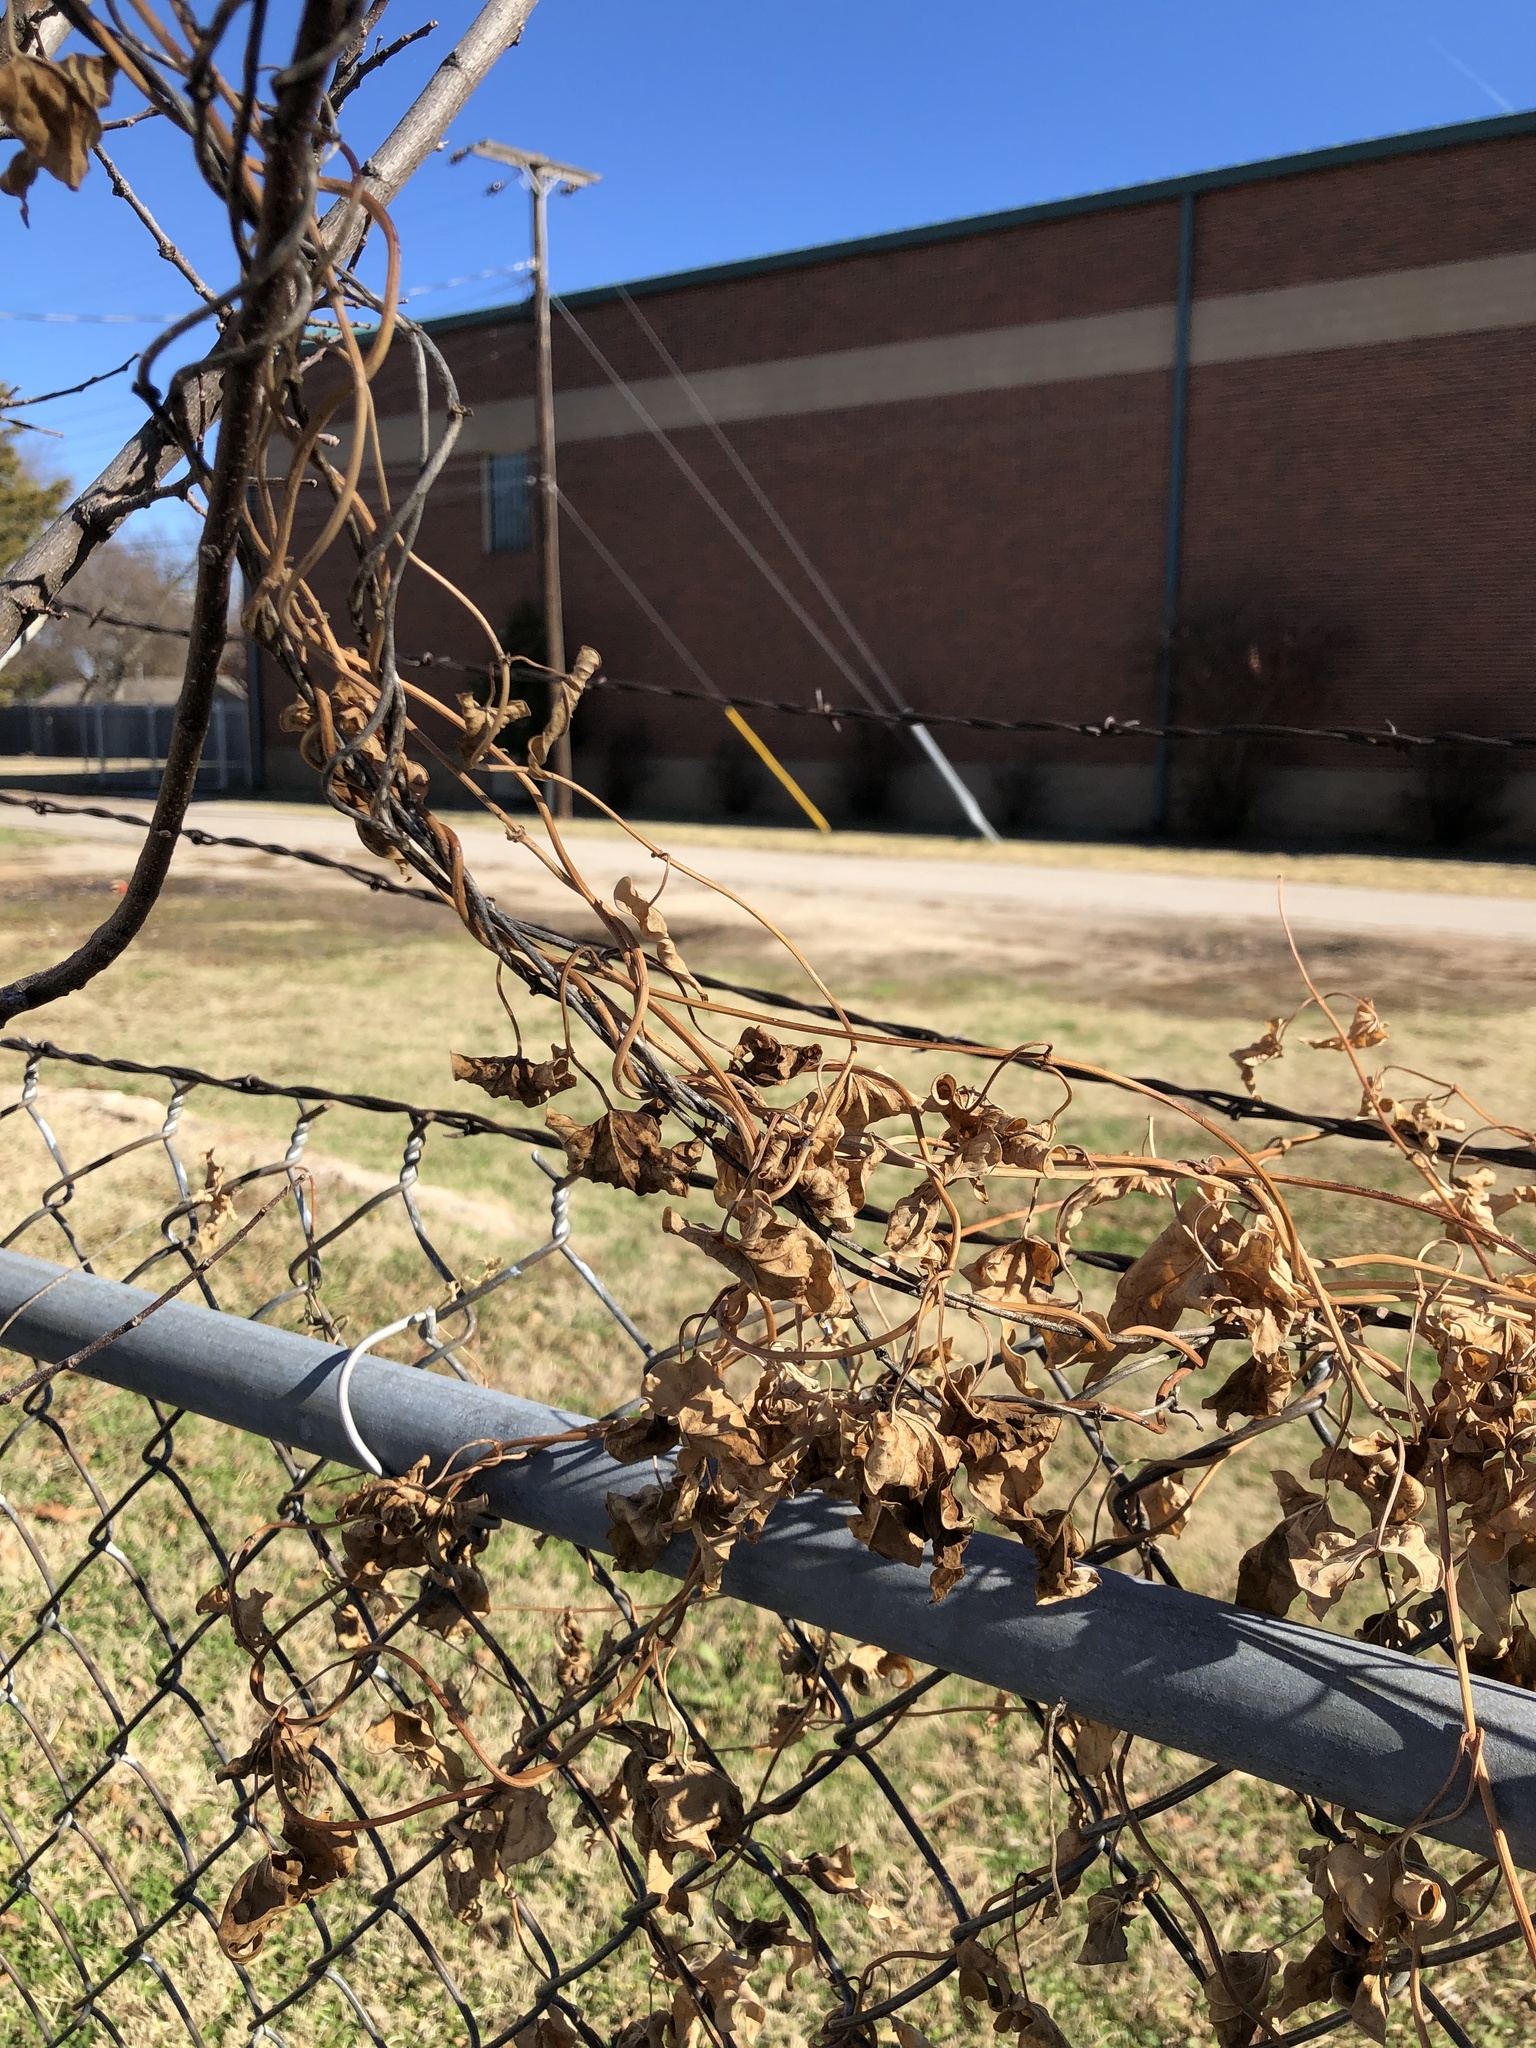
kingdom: Plantae
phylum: Tracheophyta
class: Magnoliopsida
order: Gentianales
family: Apocynaceae
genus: Cynanchum
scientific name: Cynanchum laeve
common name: Sandvine
